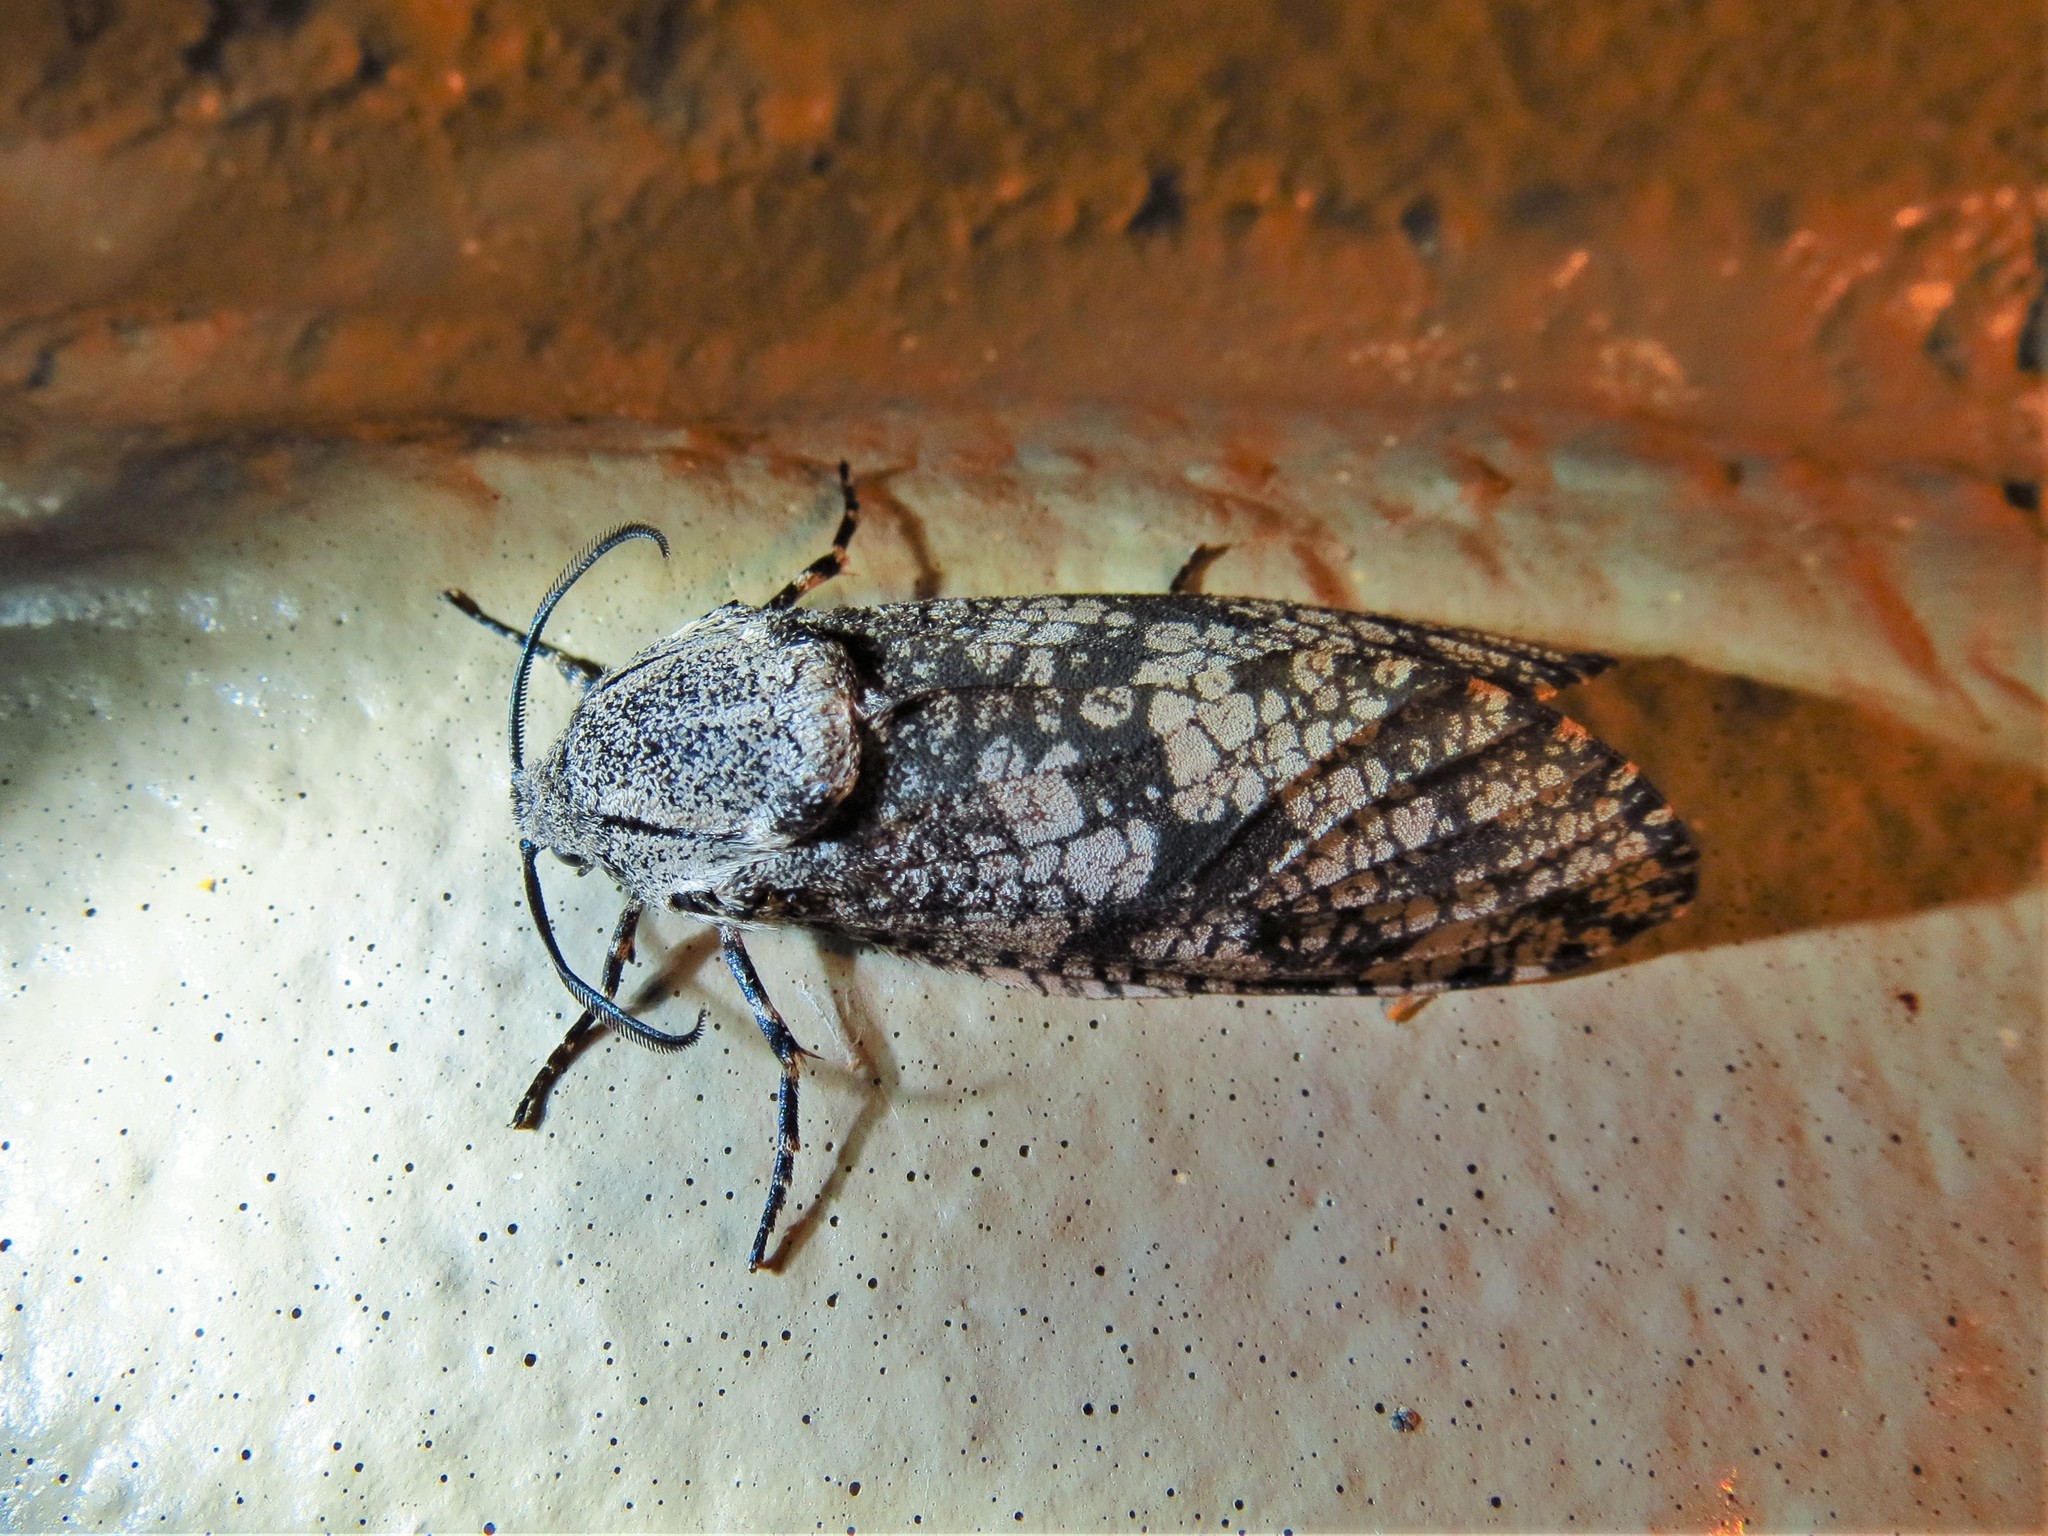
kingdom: Animalia
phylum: Arthropoda
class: Insecta
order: Lepidoptera
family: Cossidae
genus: Prionoxystus
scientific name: Prionoxystus robiniae
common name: Carpenterworm
